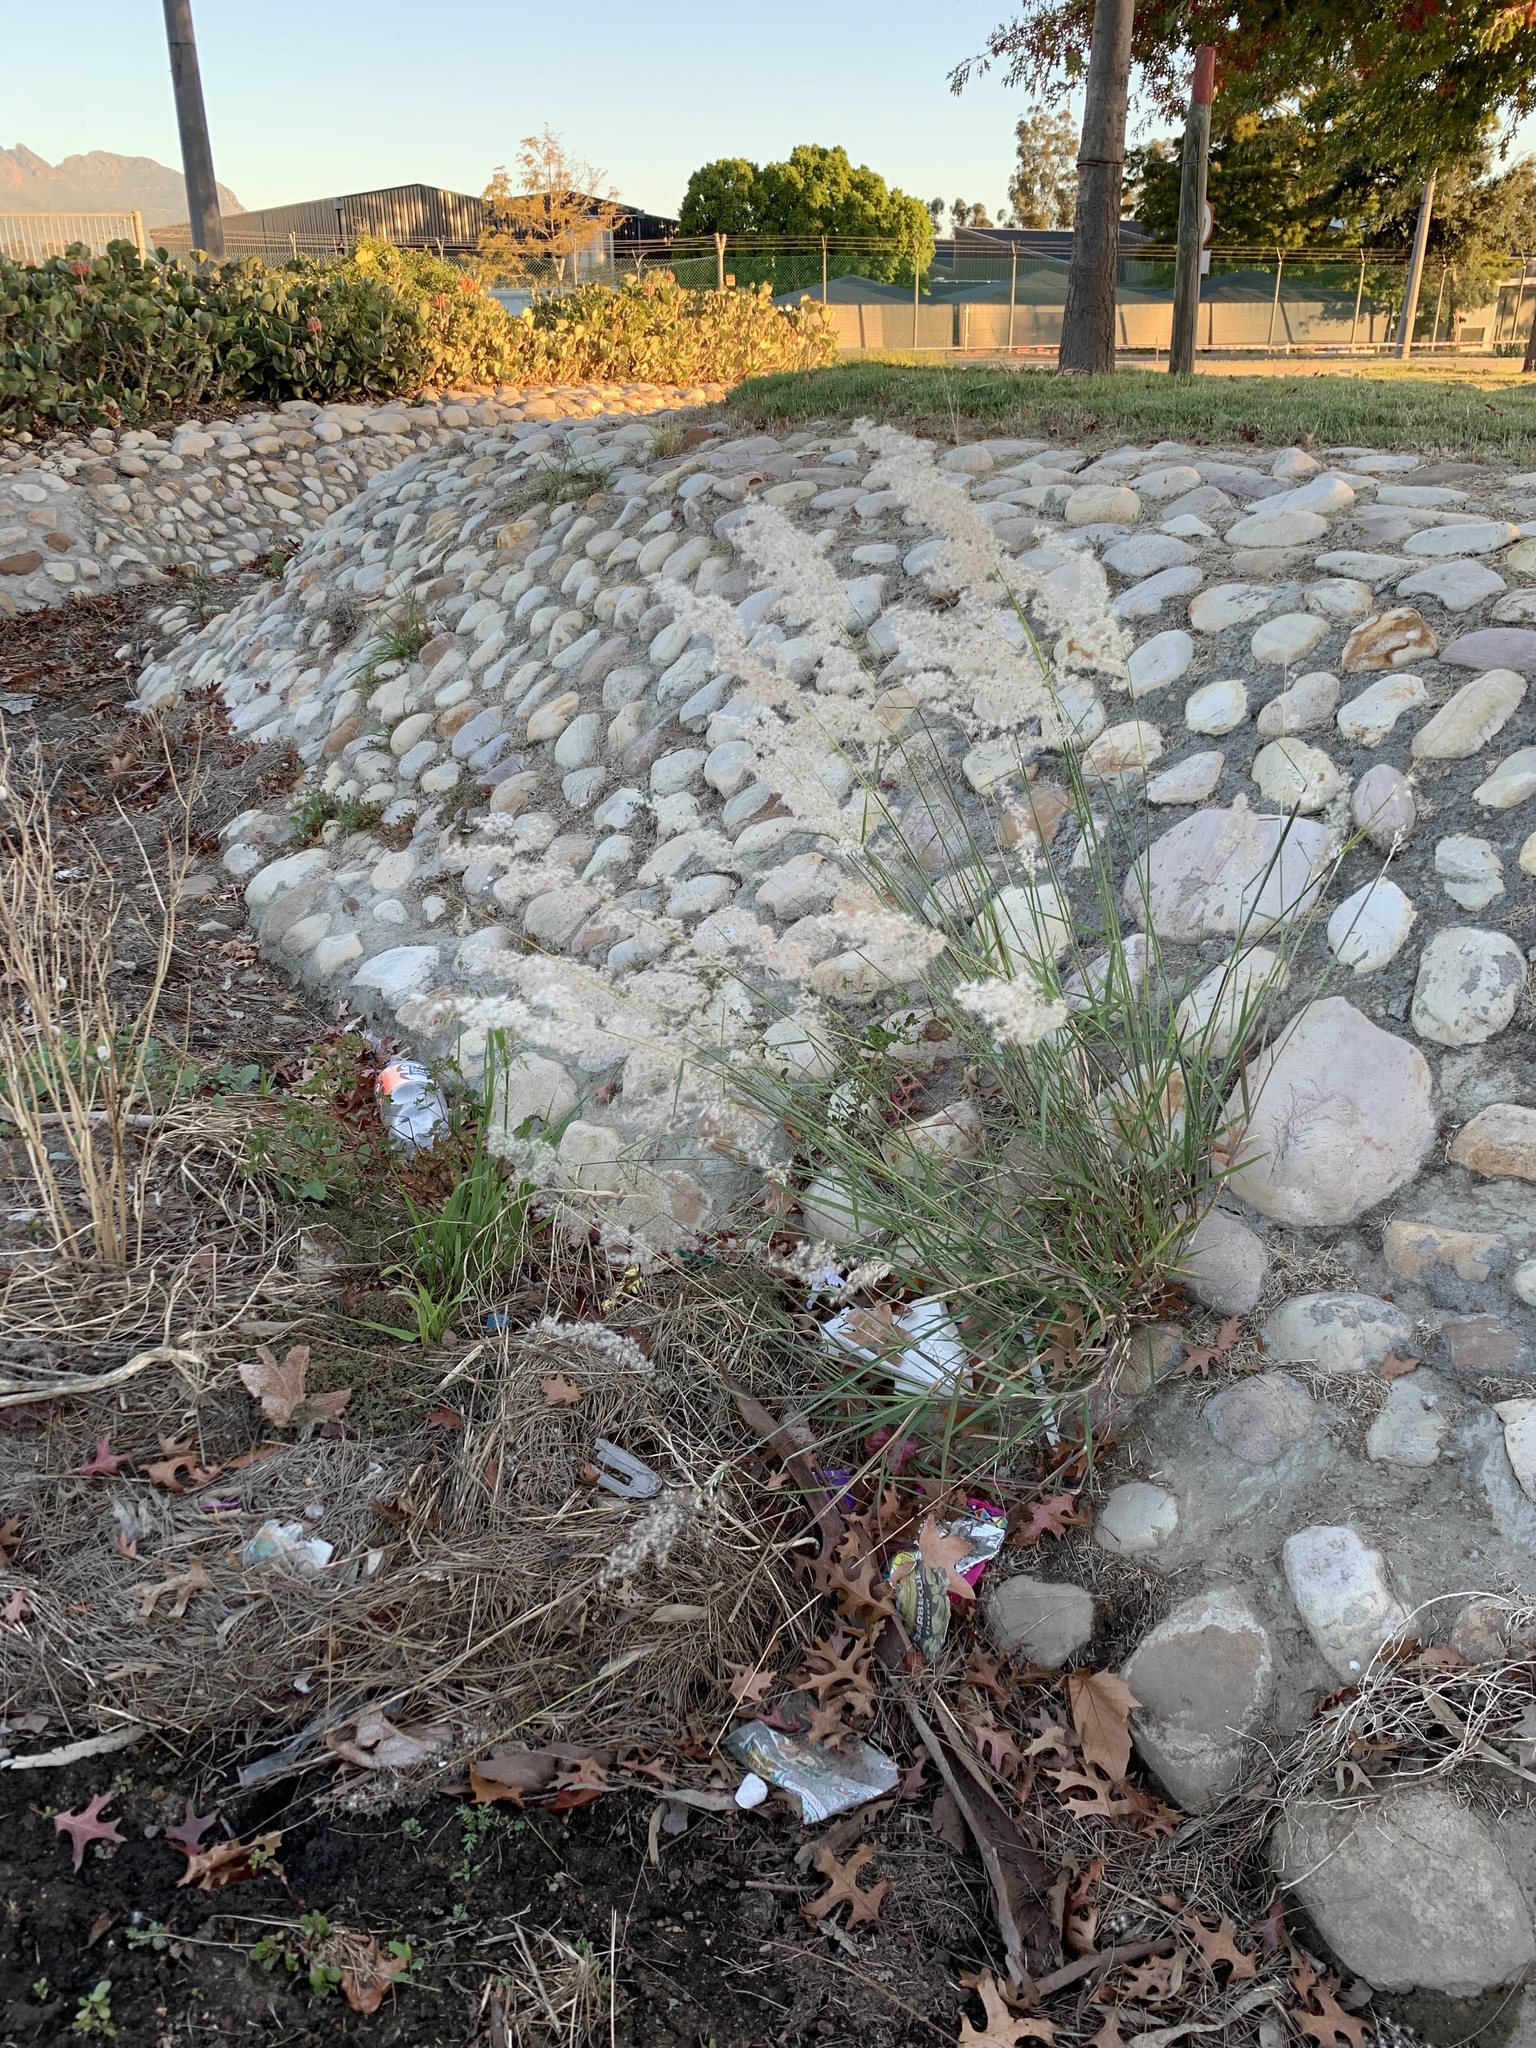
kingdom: Plantae
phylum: Tracheophyta
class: Liliopsida
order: Poales
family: Poaceae
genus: Melinis
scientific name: Melinis repens
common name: Rose natal grass
